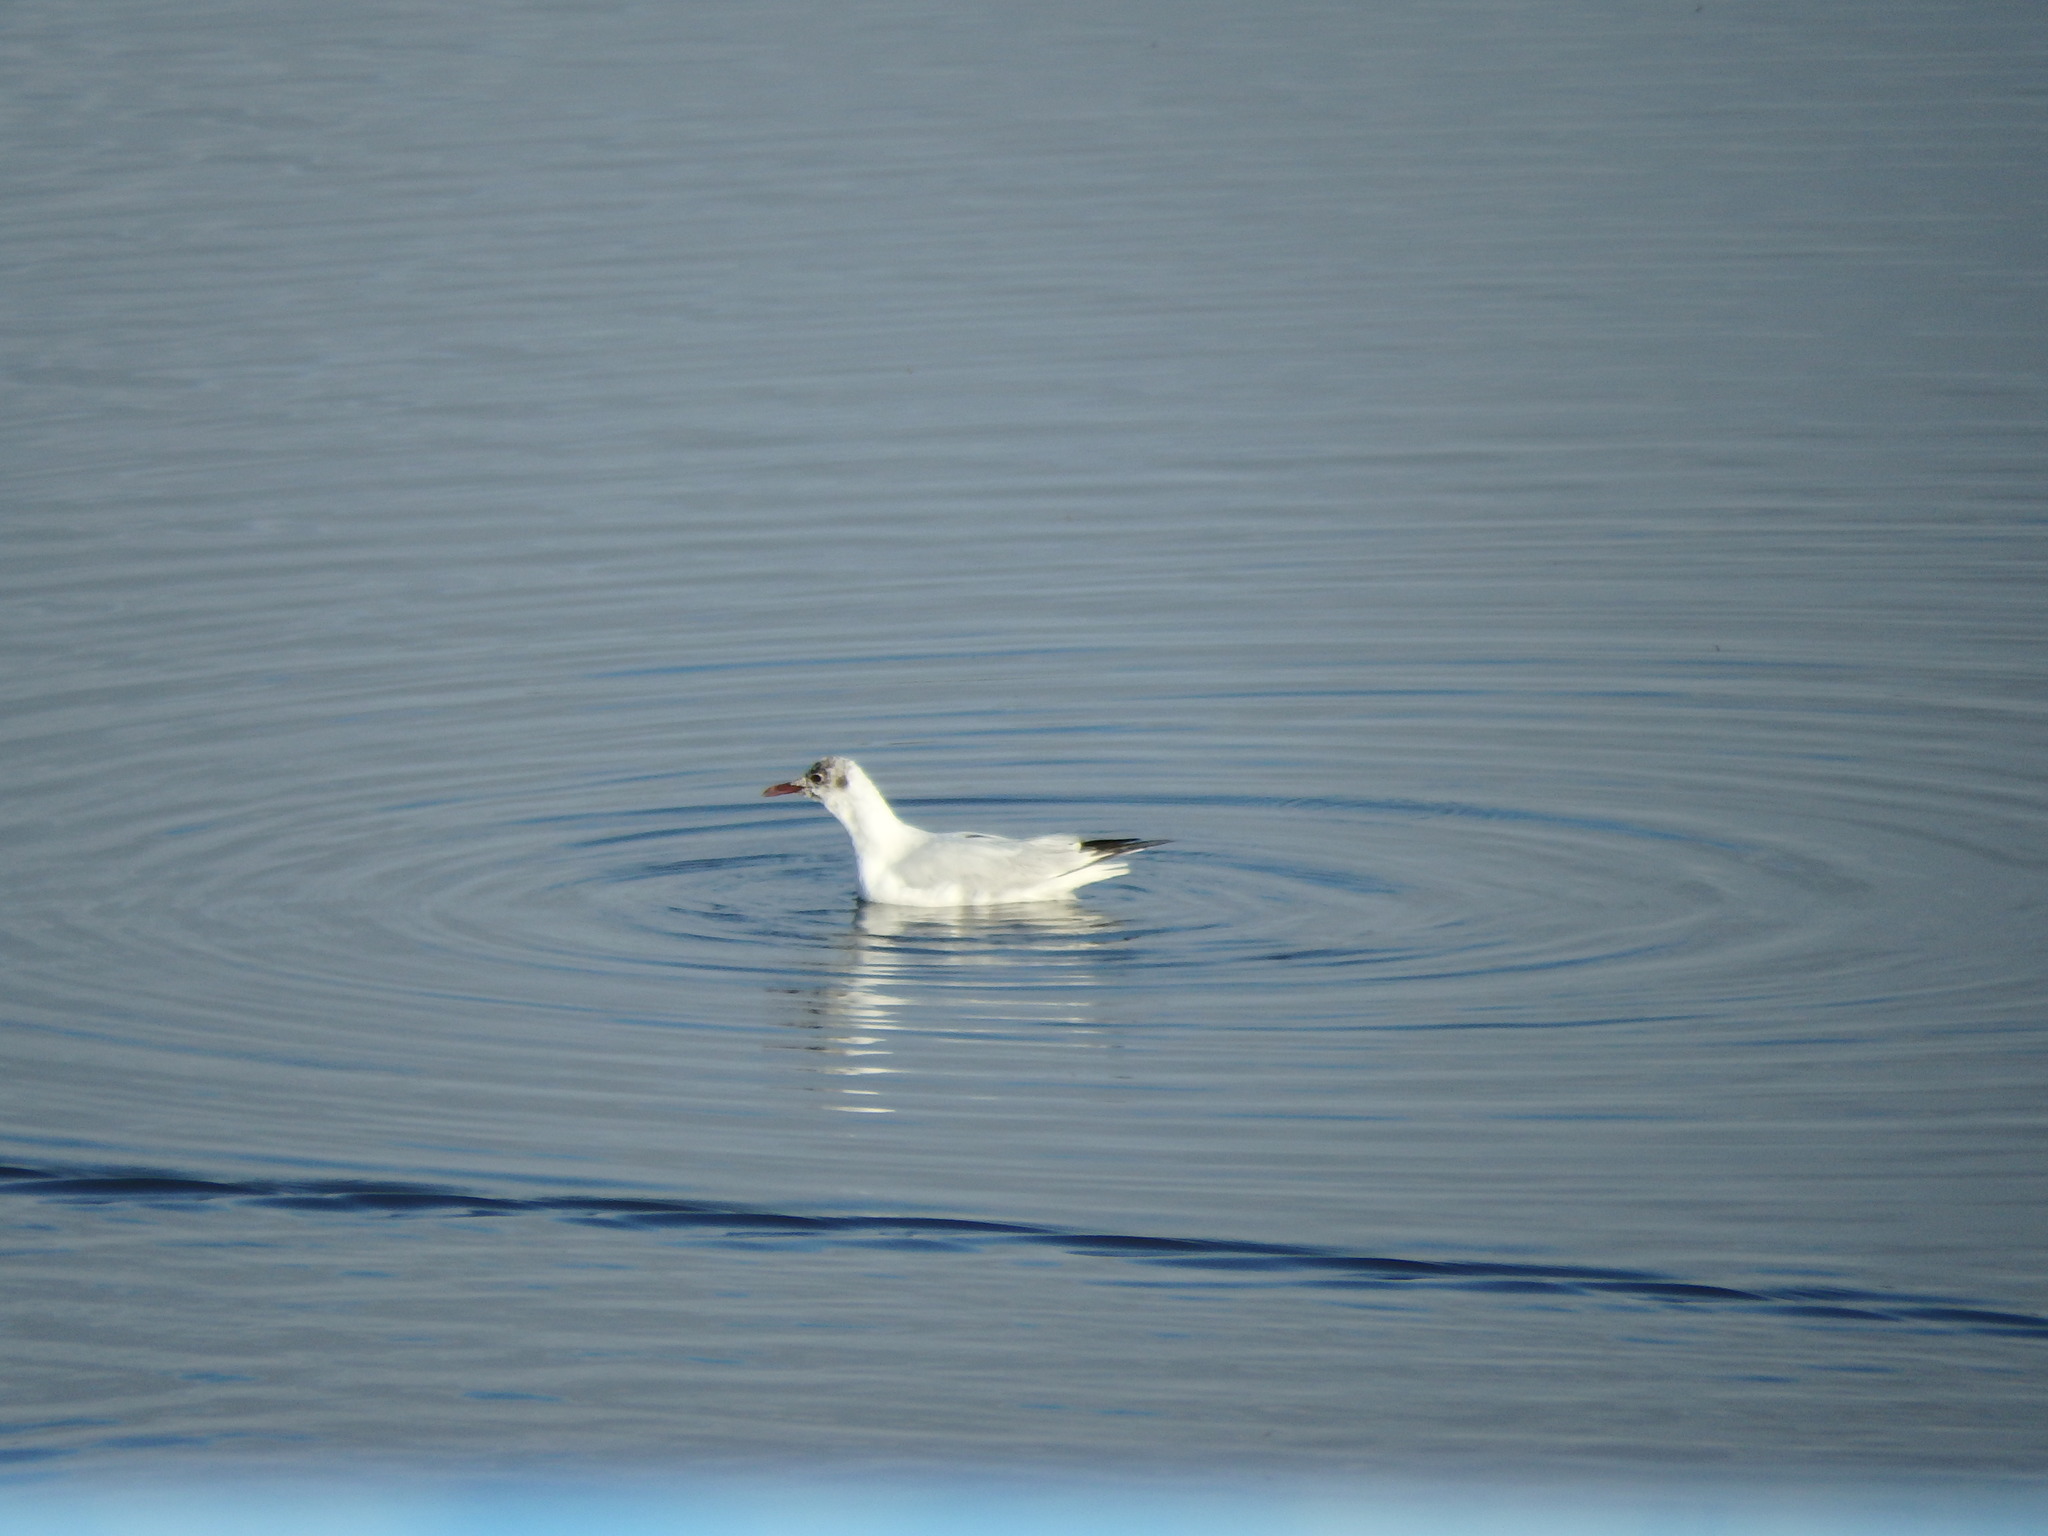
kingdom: Animalia
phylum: Chordata
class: Aves
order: Charadriiformes
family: Laridae
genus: Chroicocephalus
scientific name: Chroicocephalus ridibundus
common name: Black-headed gull
